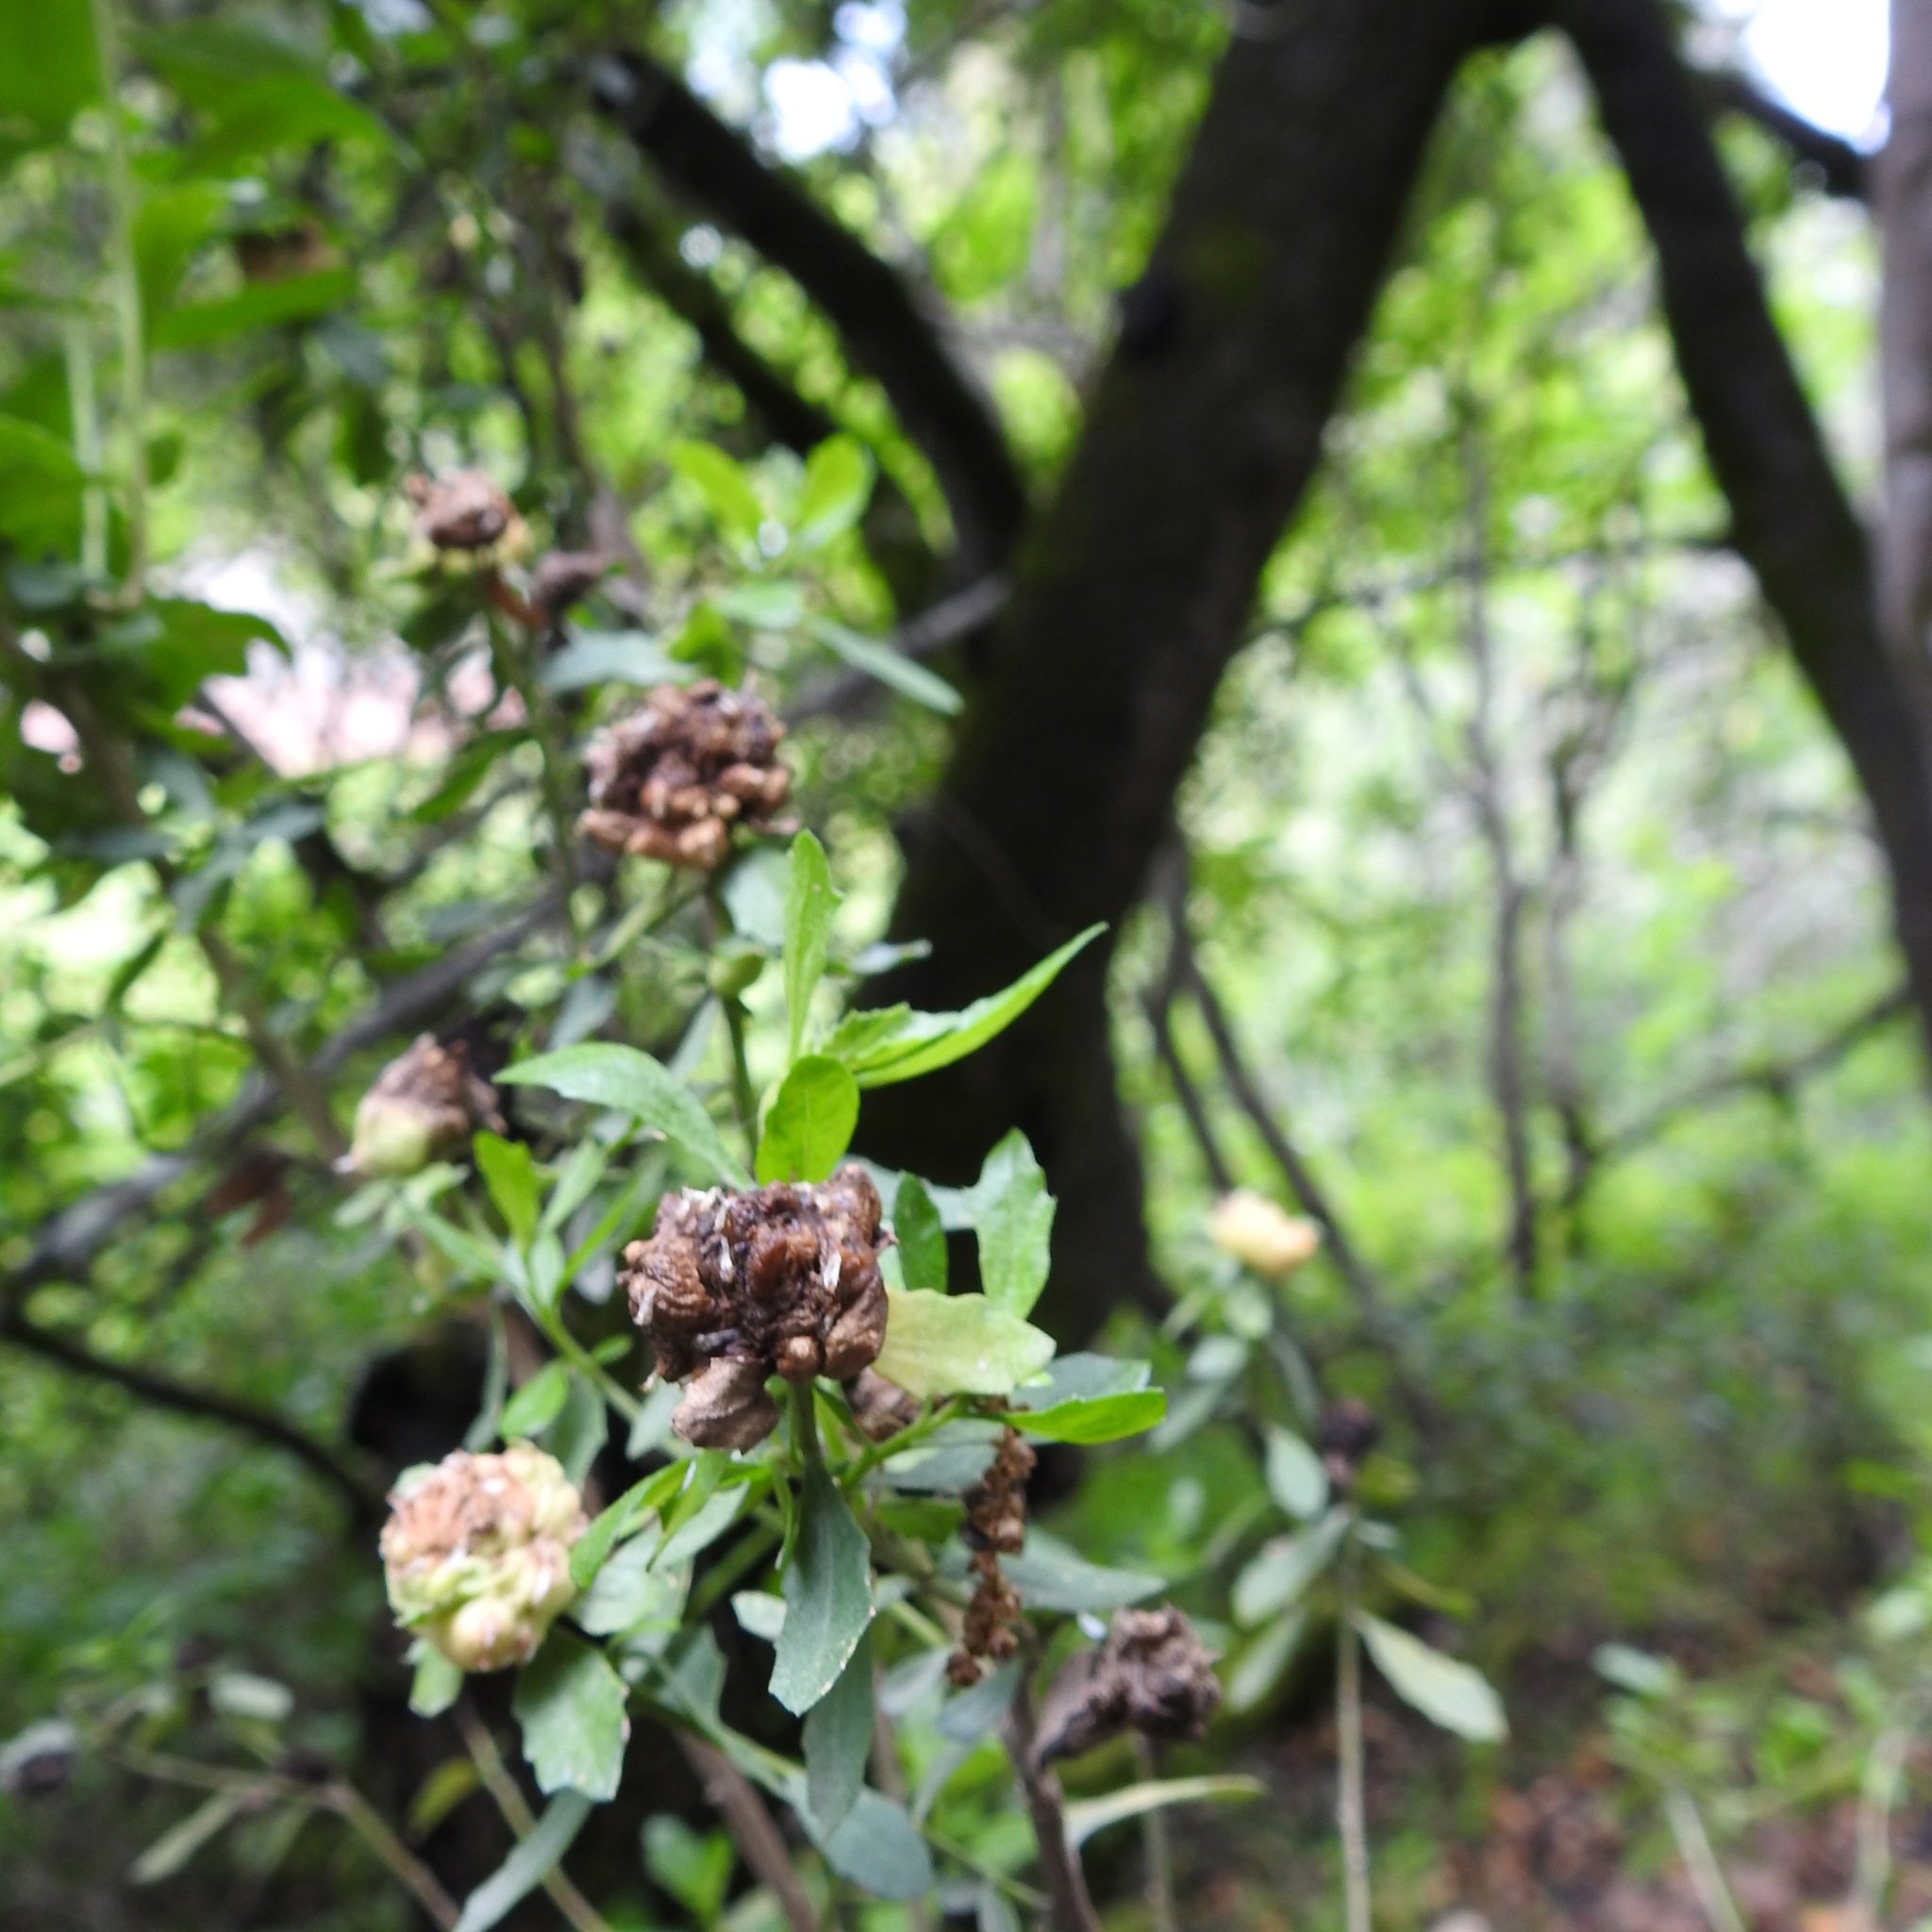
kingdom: Animalia
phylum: Arthropoda
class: Insecta
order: Diptera
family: Cecidomyiidae
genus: Rhopalomyia
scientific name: Rhopalomyia californica
